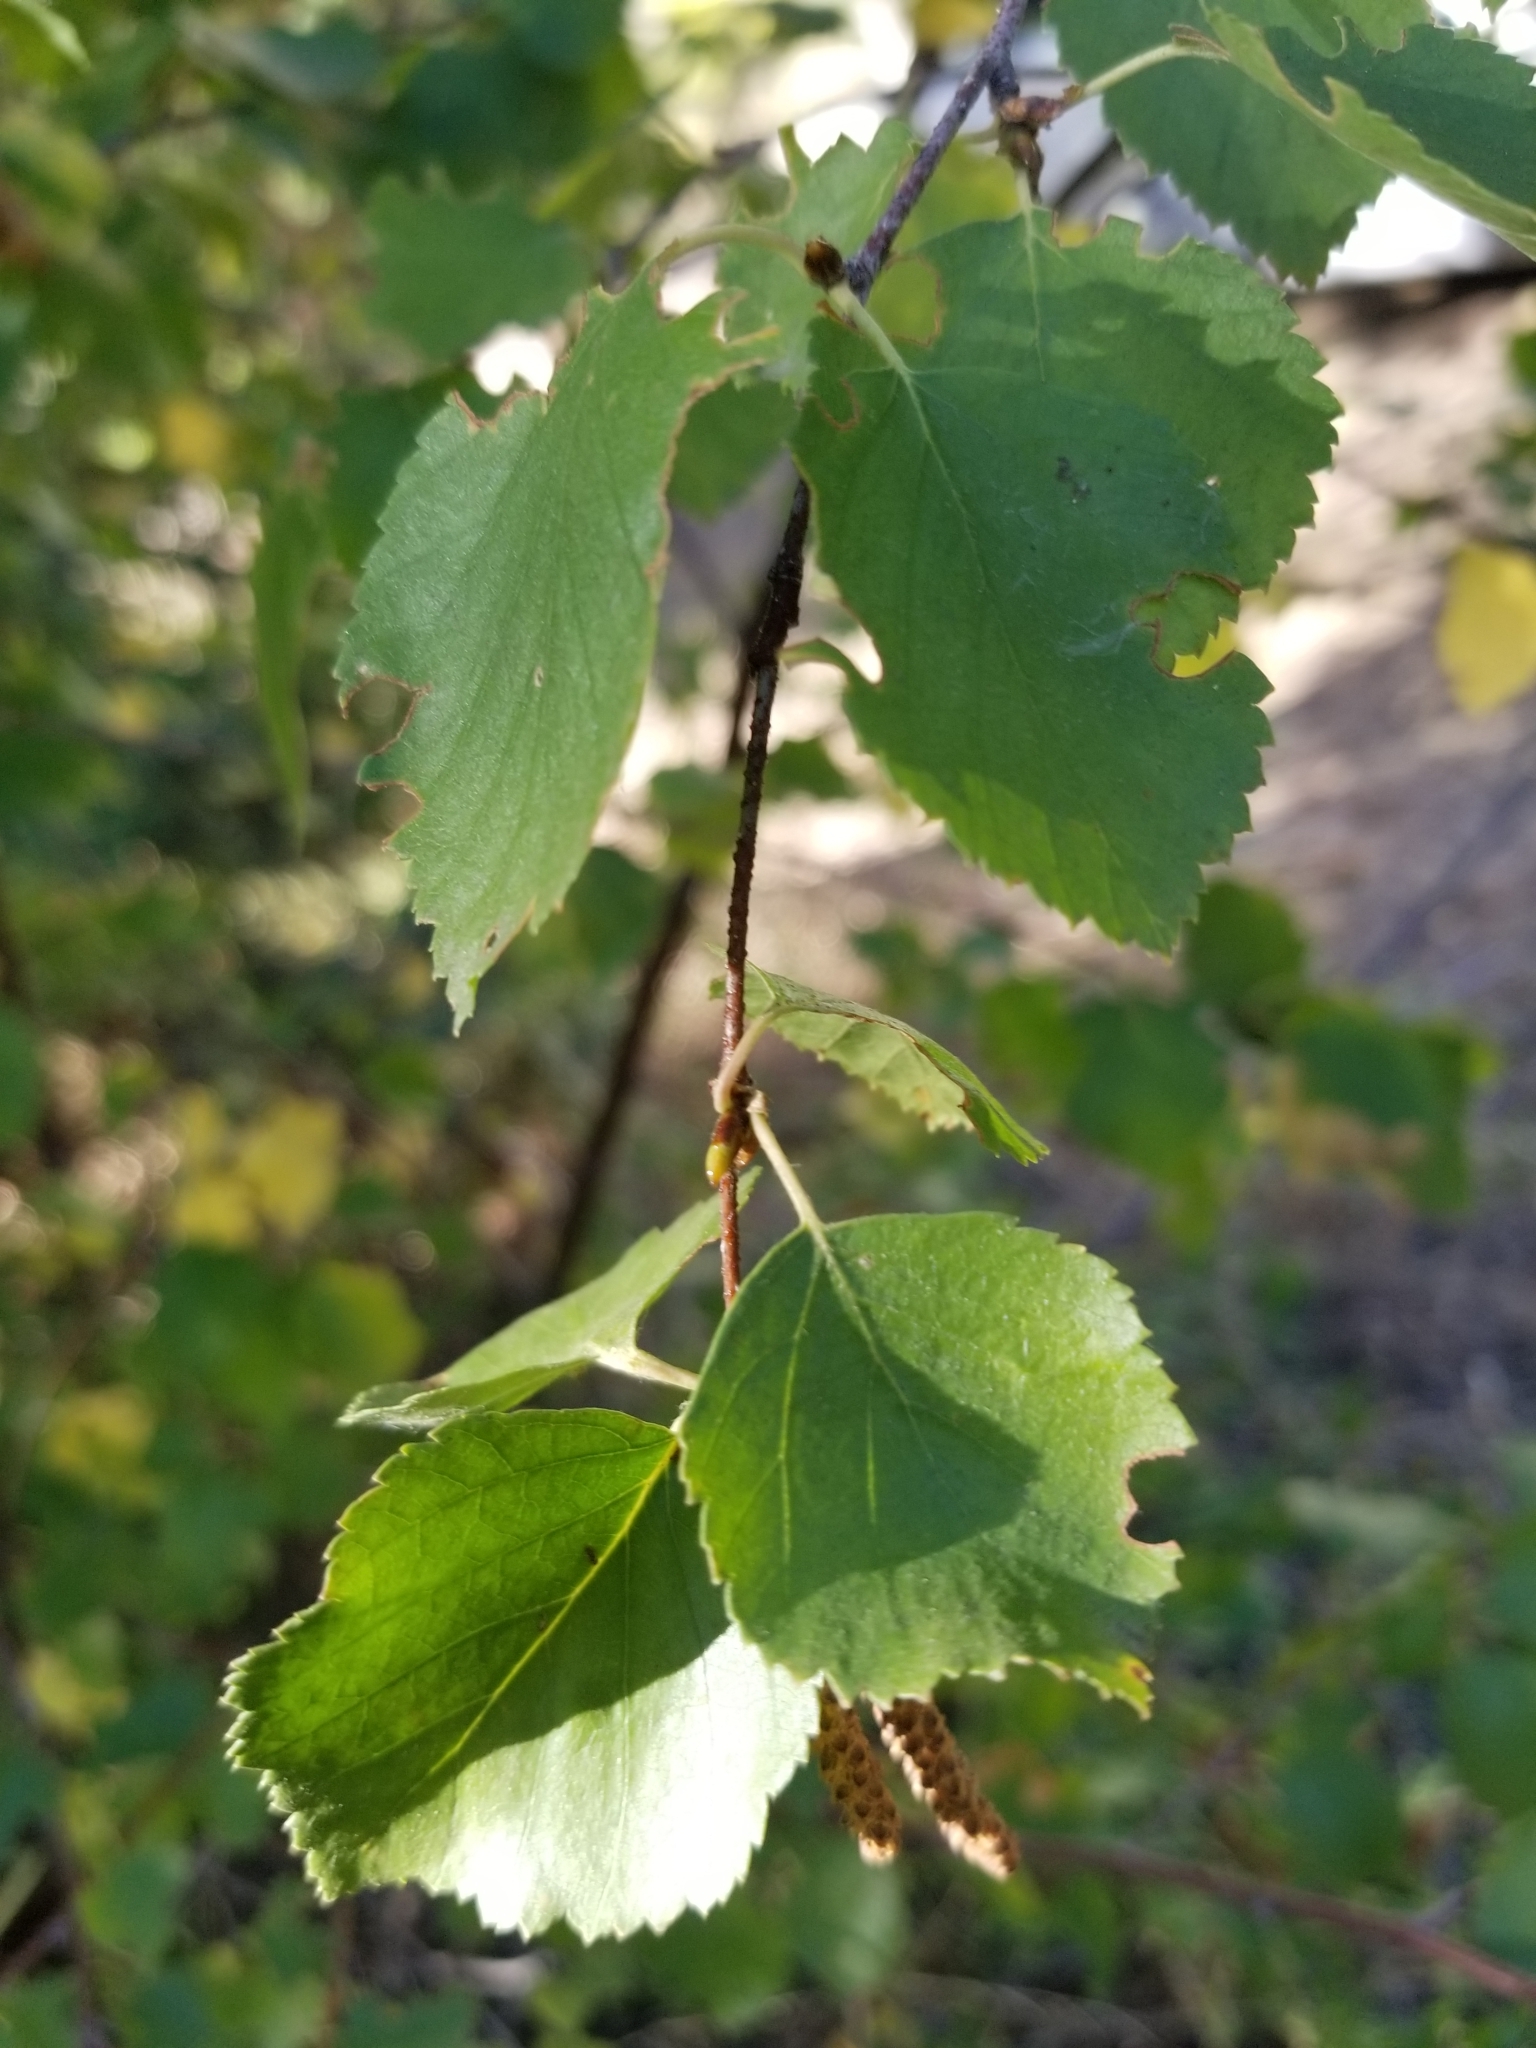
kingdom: Plantae
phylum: Tracheophyta
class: Magnoliopsida
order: Fagales
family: Betulaceae
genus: Betula
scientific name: Betula occidentalis
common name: River birch
